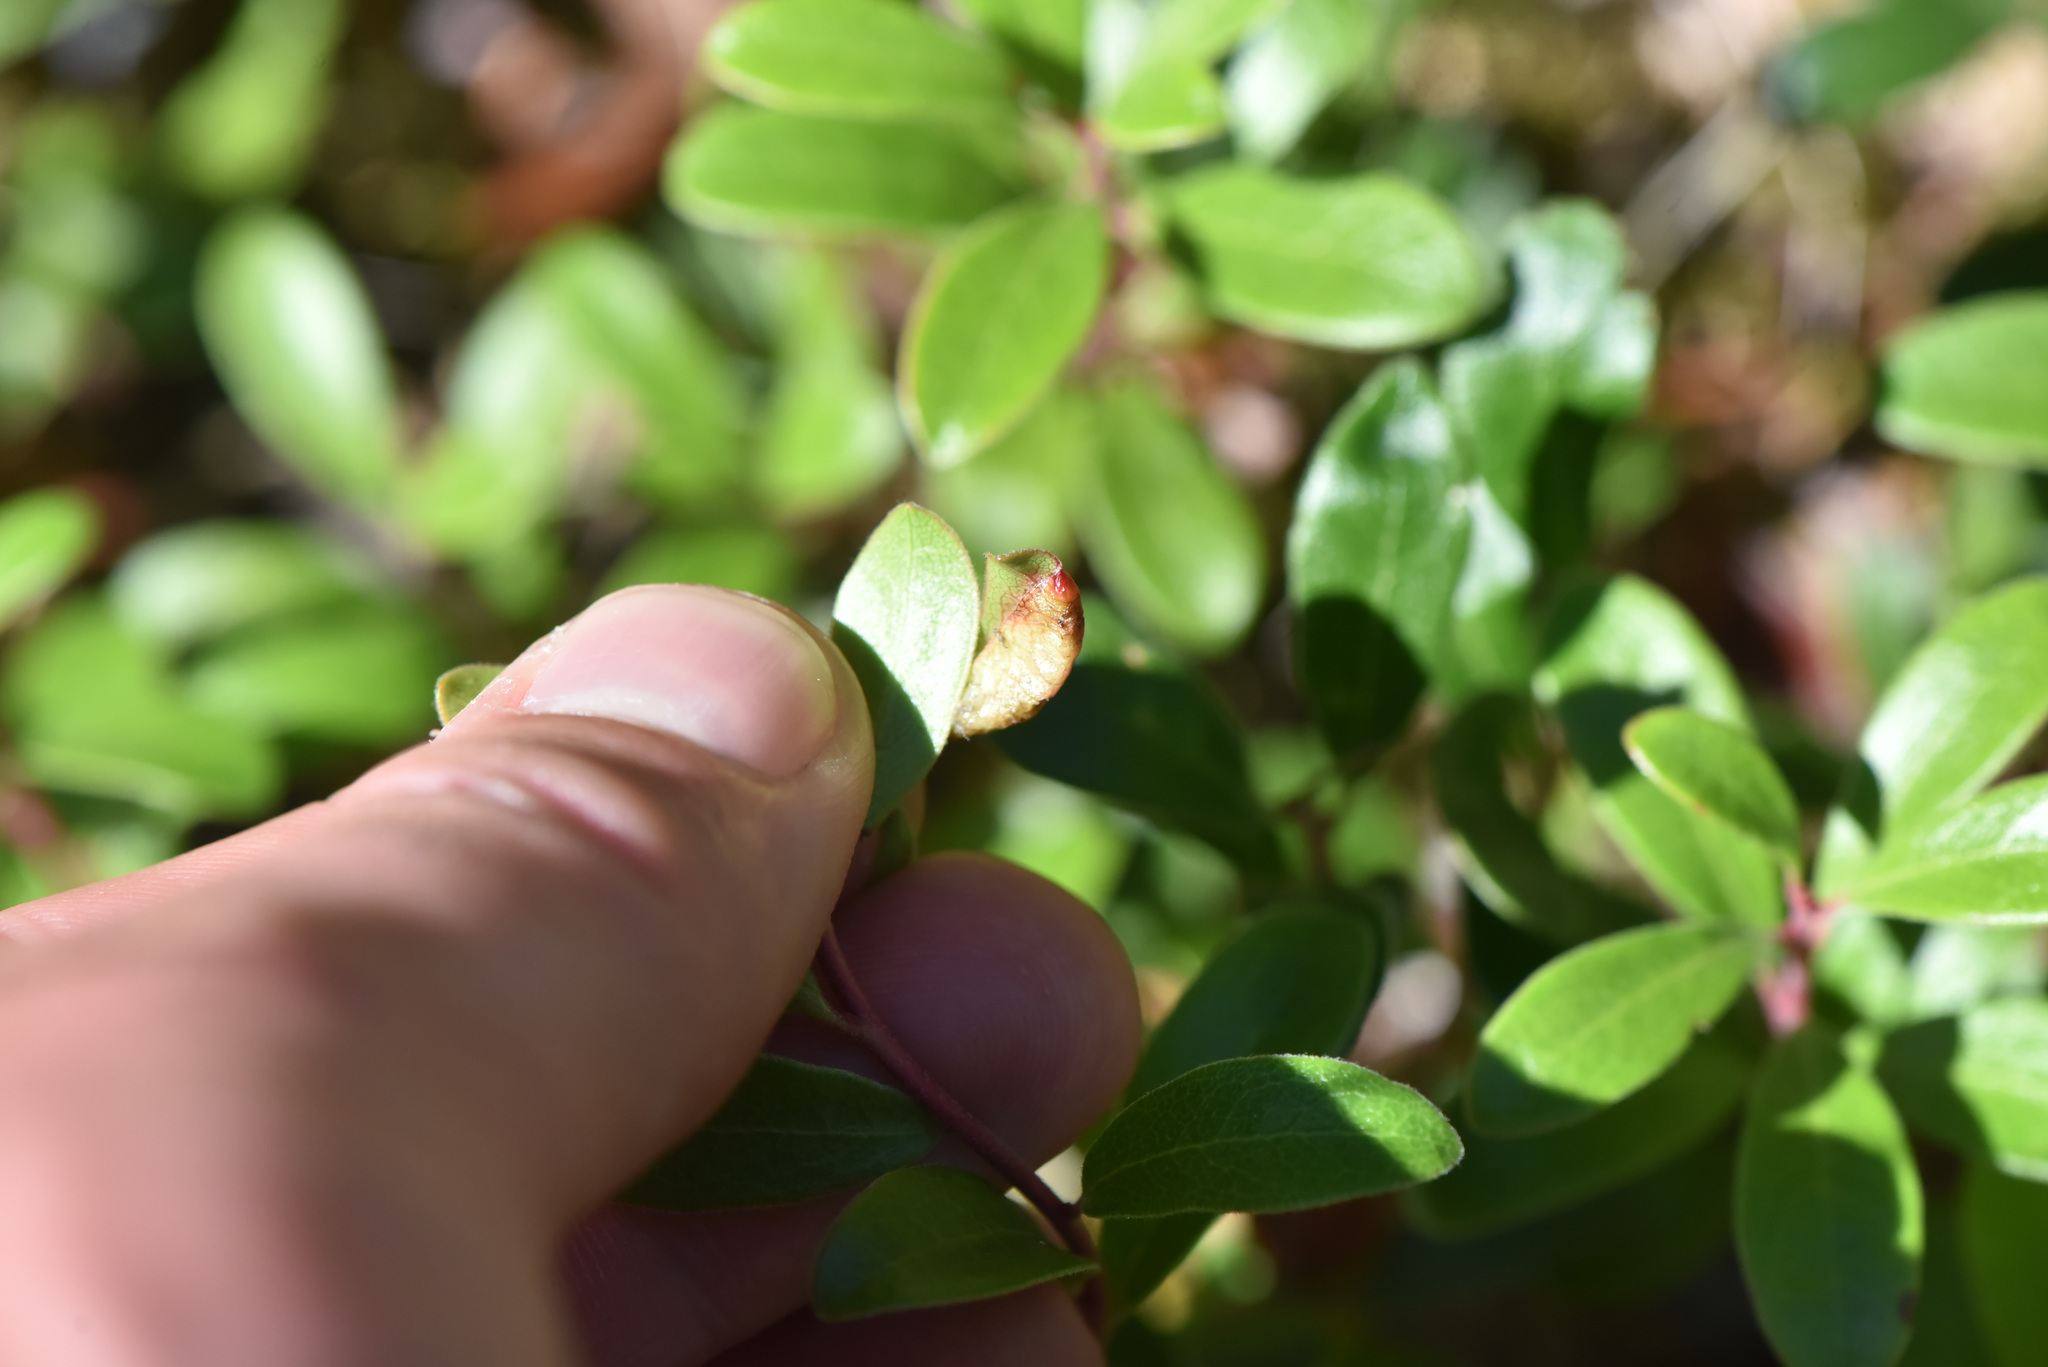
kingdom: Plantae
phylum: Tracheophyta
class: Magnoliopsida
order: Ericales
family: Ericaceae
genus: Arctostaphylos
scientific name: Arctostaphylos uva-ursi
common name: Bearberry
